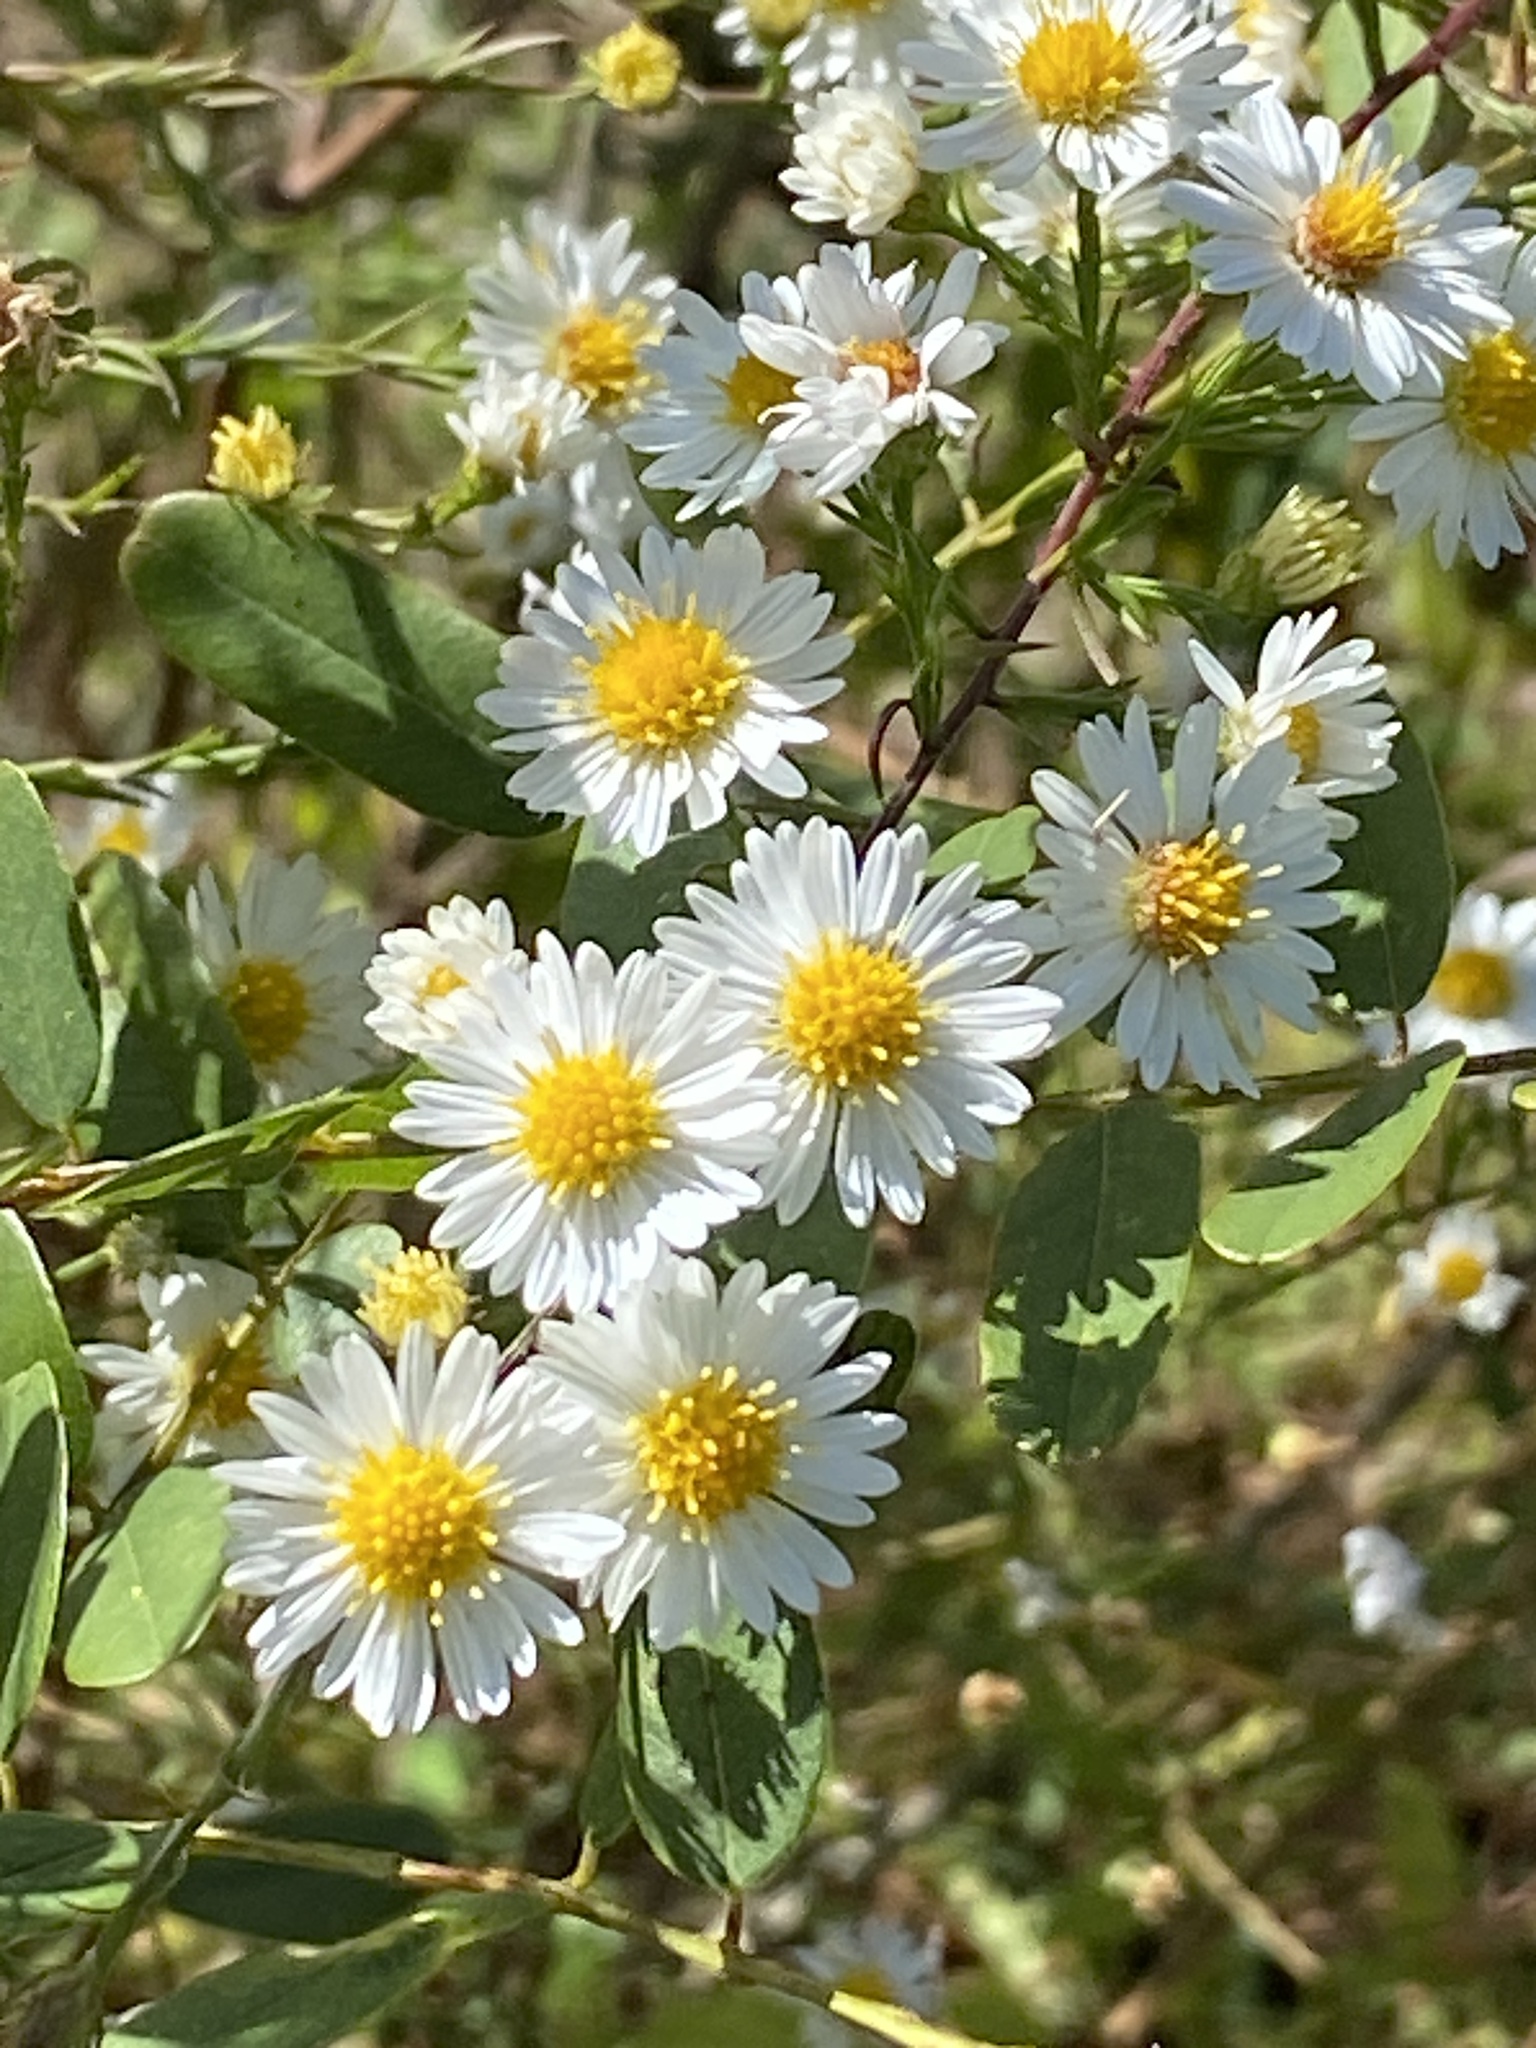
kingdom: Plantae
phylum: Tracheophyta
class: Magnoliopsida
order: Asterales
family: Asteraceae
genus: Symphyotrichum
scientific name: Symphyotrichum pilosum
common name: Awl aster
